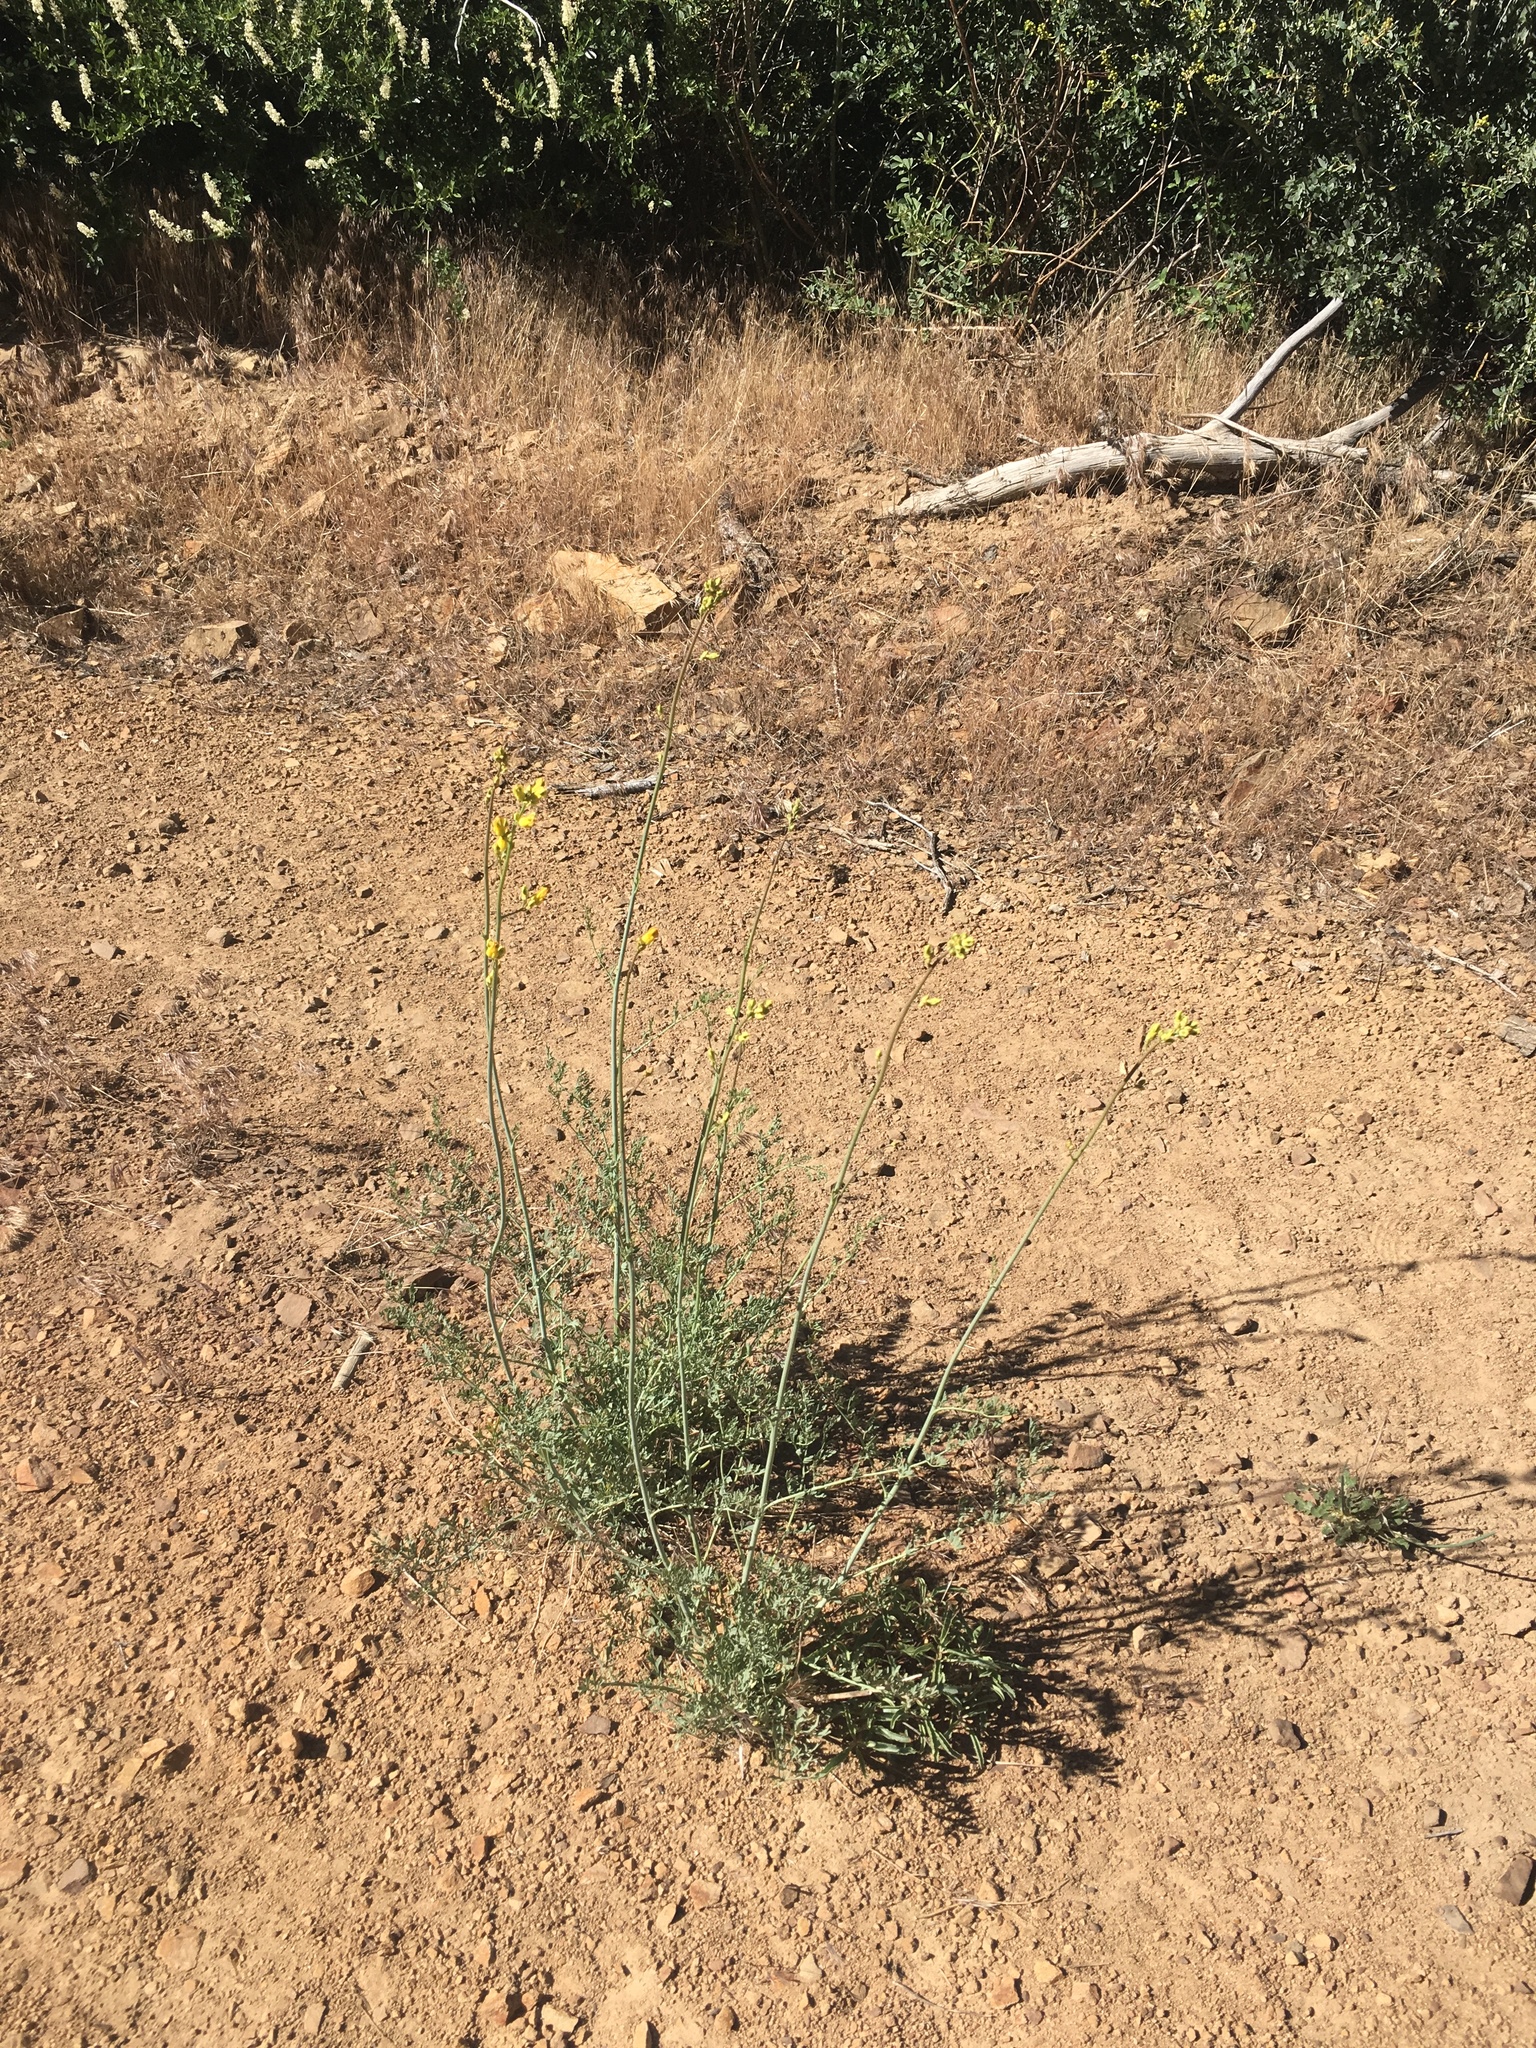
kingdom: Plantae
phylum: Tracheophyta
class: Magnoliopsida
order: Ranunculales
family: Papaveraceae
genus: Ehrendorferia
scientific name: Ehrendorferia chrysantha
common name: Golden eardrops
